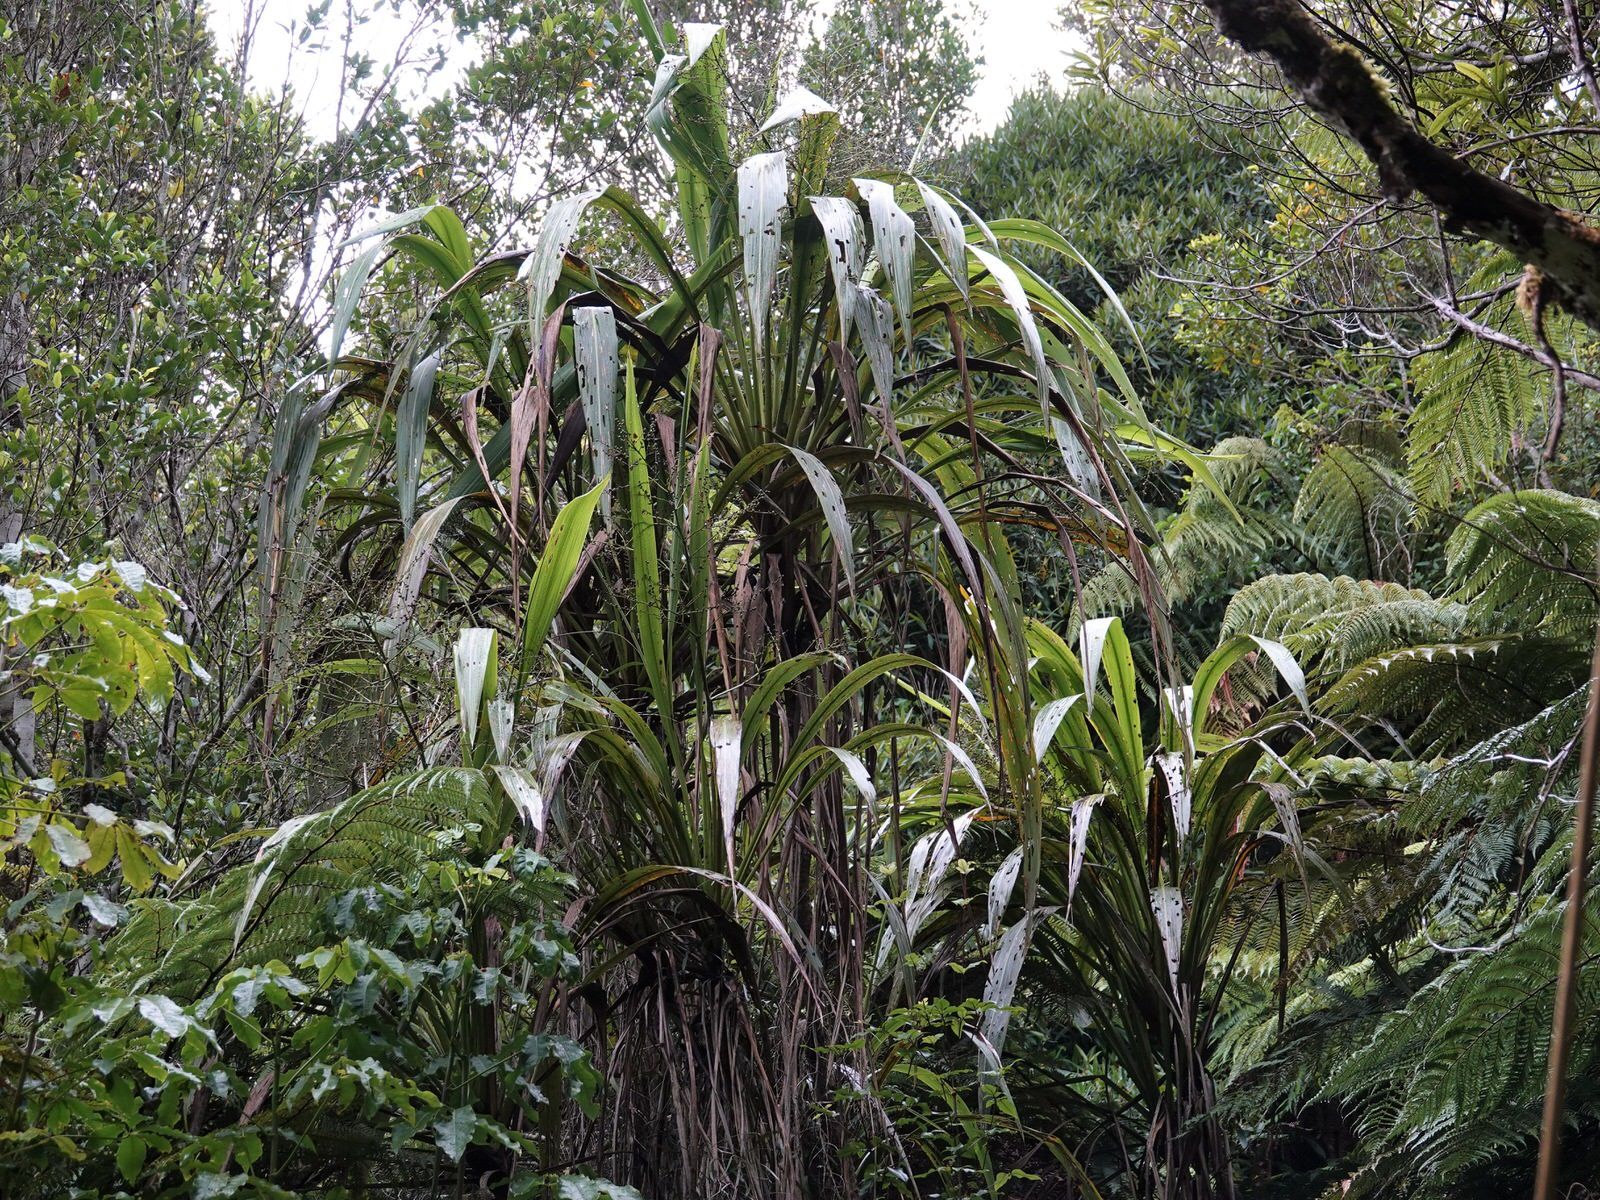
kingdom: Plantae
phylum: Tracheophyta
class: Liliopsida
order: Asparagales
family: Asparagaceae
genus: Cordyline
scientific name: Cordyline banksii
